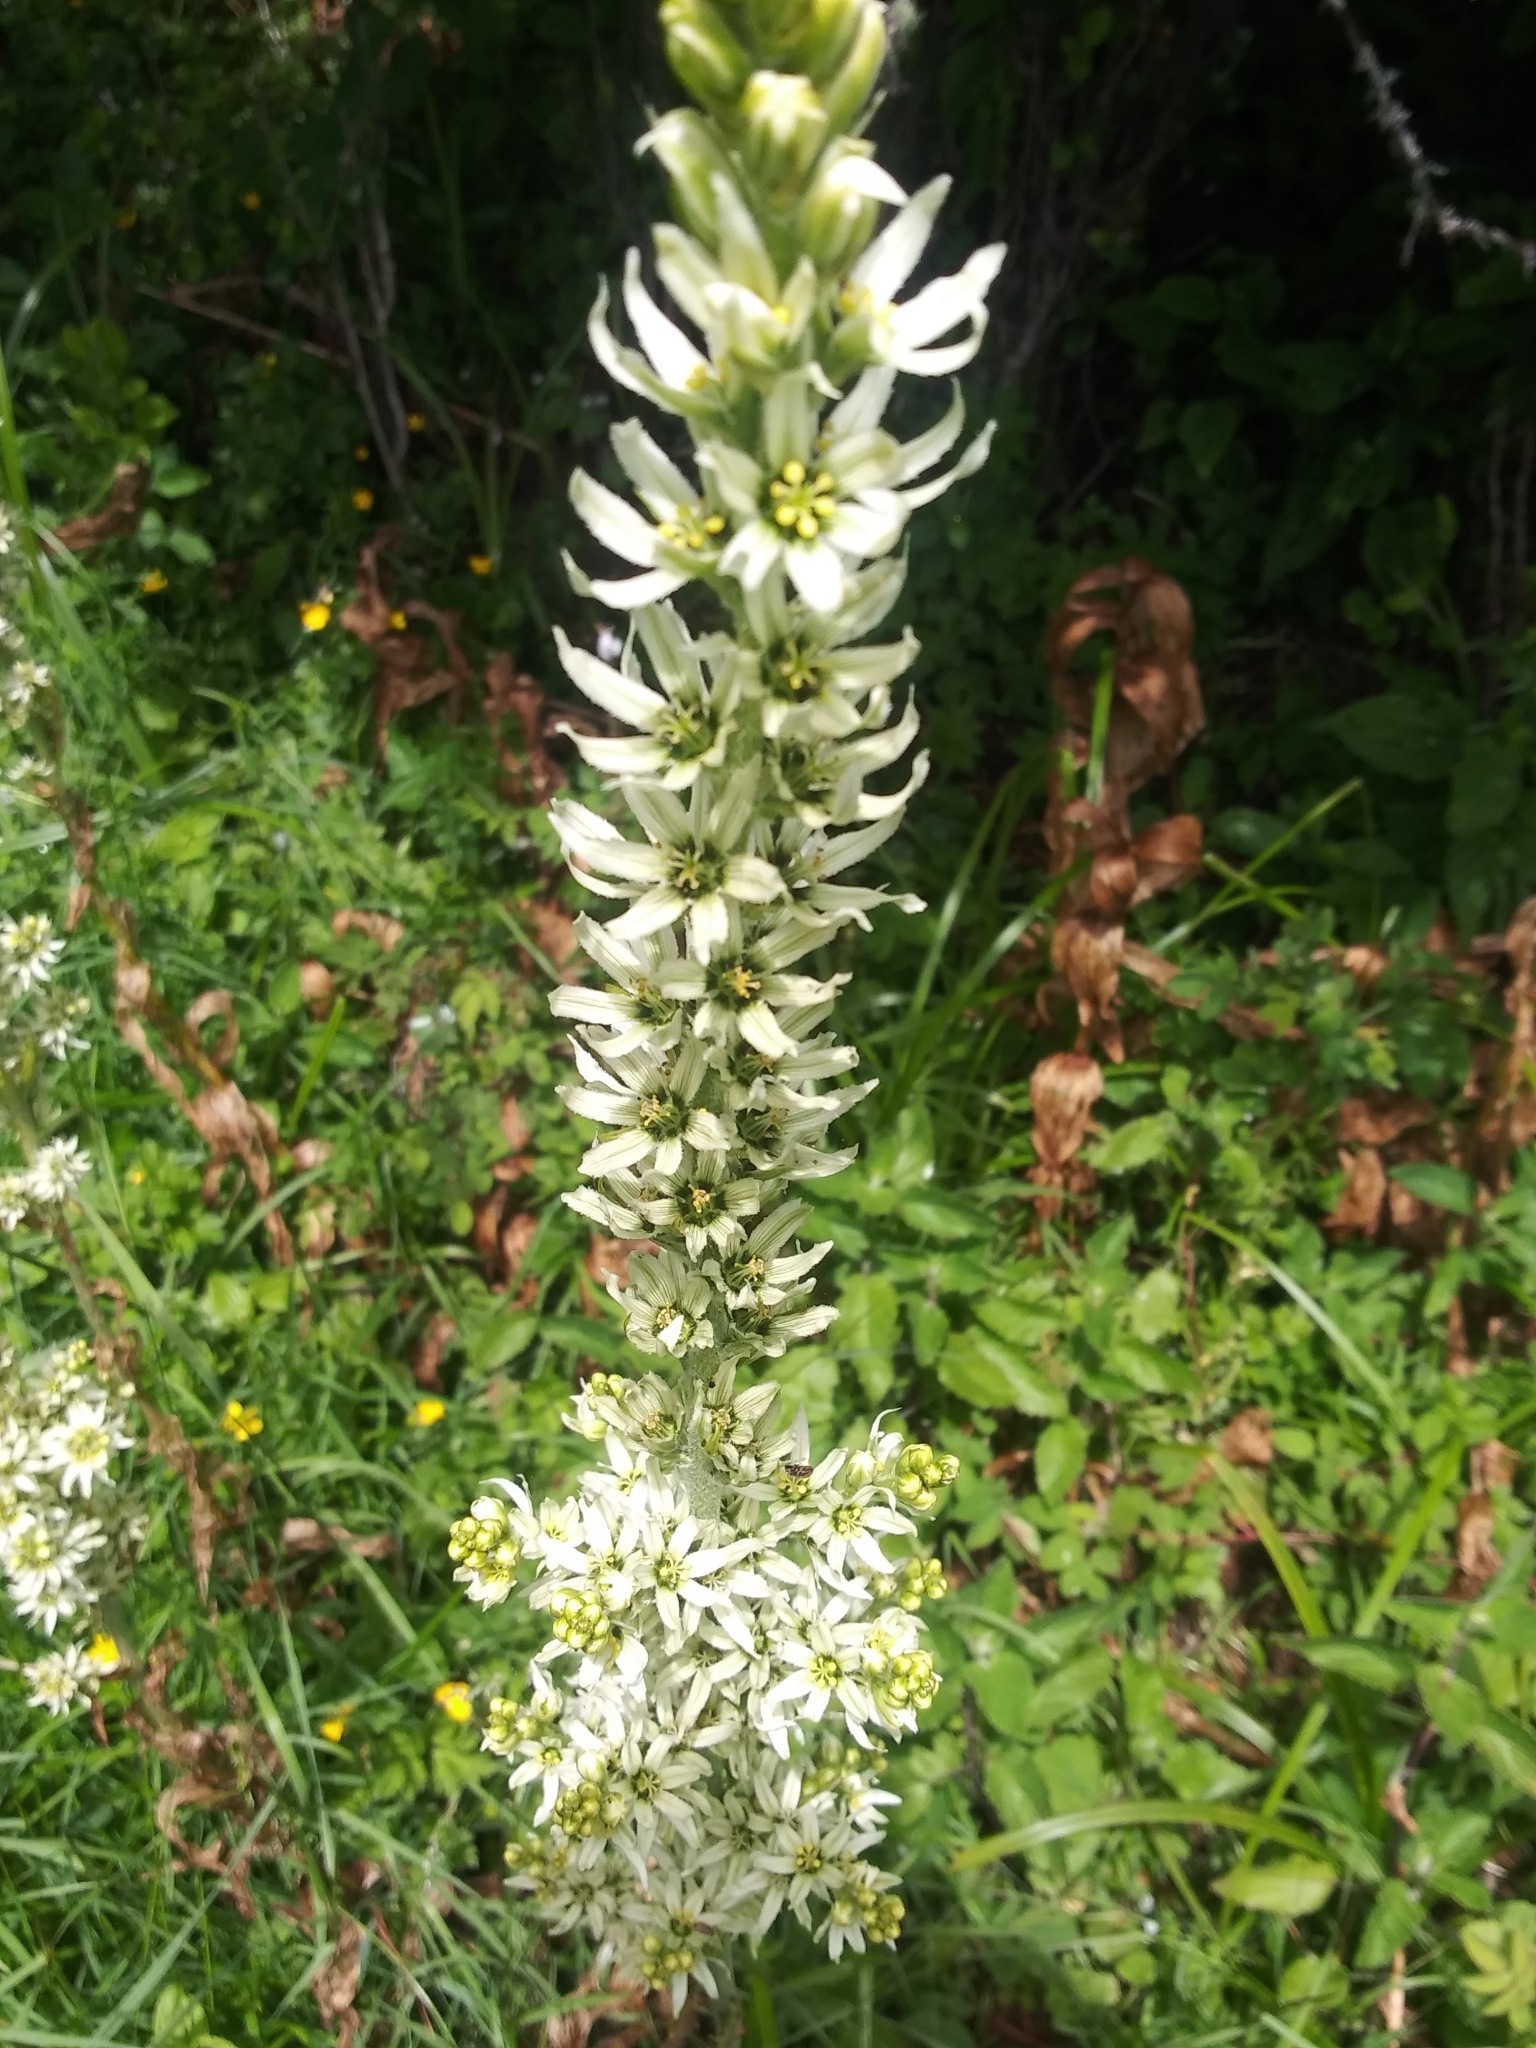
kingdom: Plantae
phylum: Tracheophyta
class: Liliopsida
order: Liliales
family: Melanthiaceae
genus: Veratrum
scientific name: Veratrum californicum
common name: California veratrum
